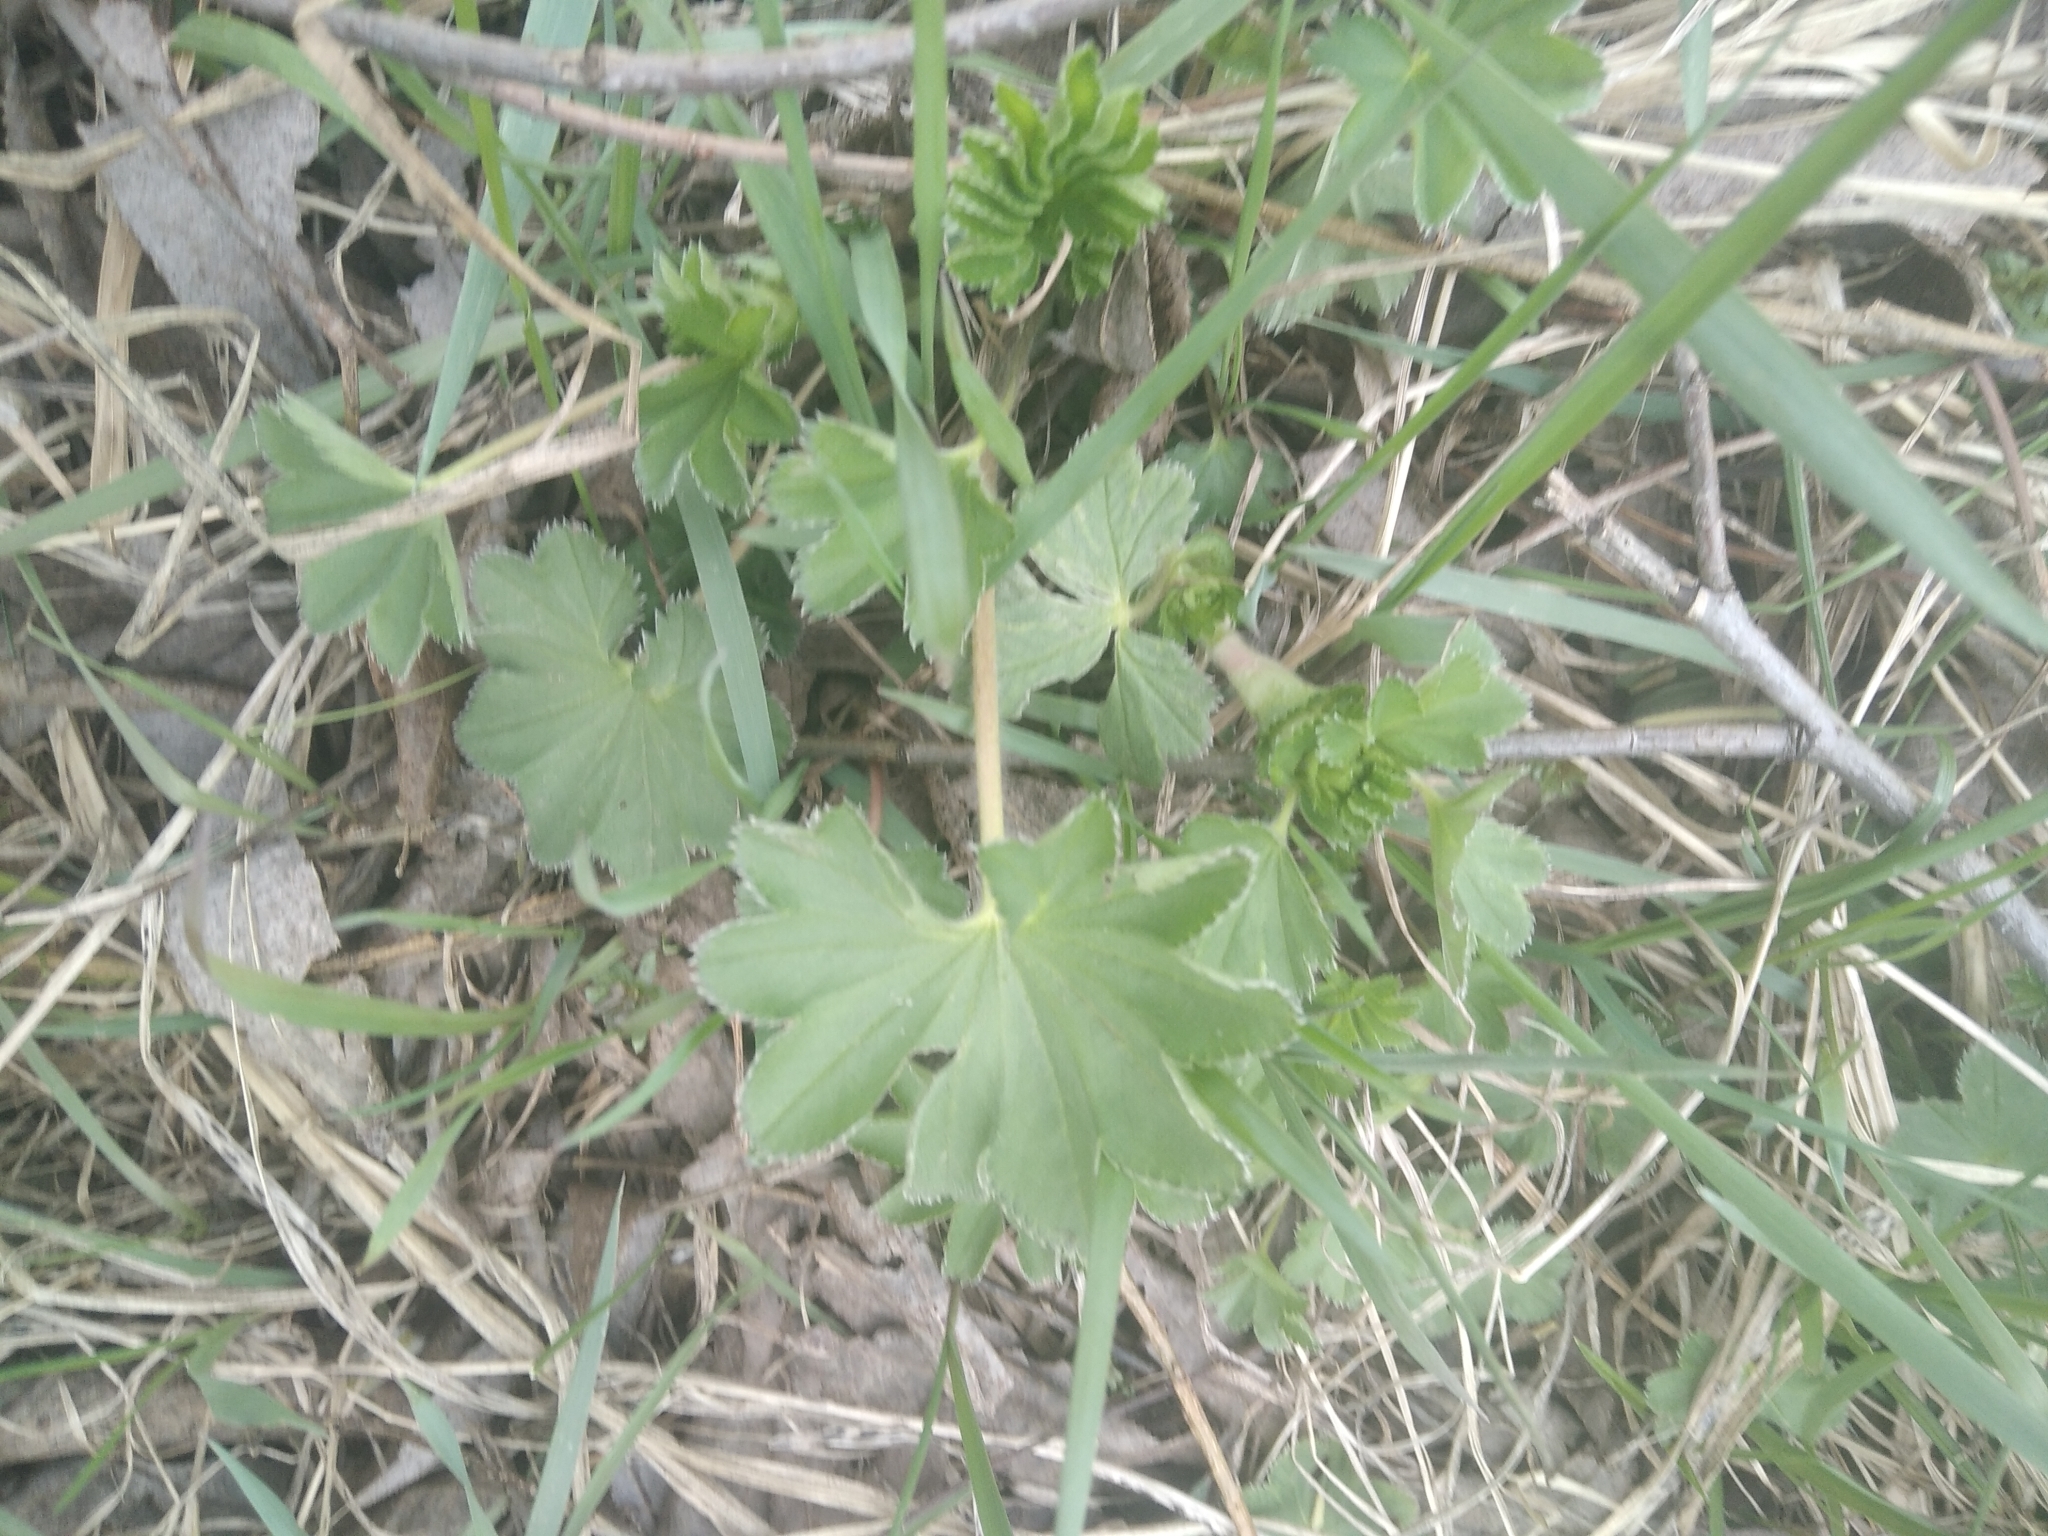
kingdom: Plantae
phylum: Tracheophyta
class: Magnoliopsida
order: Rosales
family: Rosaceae
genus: Alchemilla
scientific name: Alchemilla
